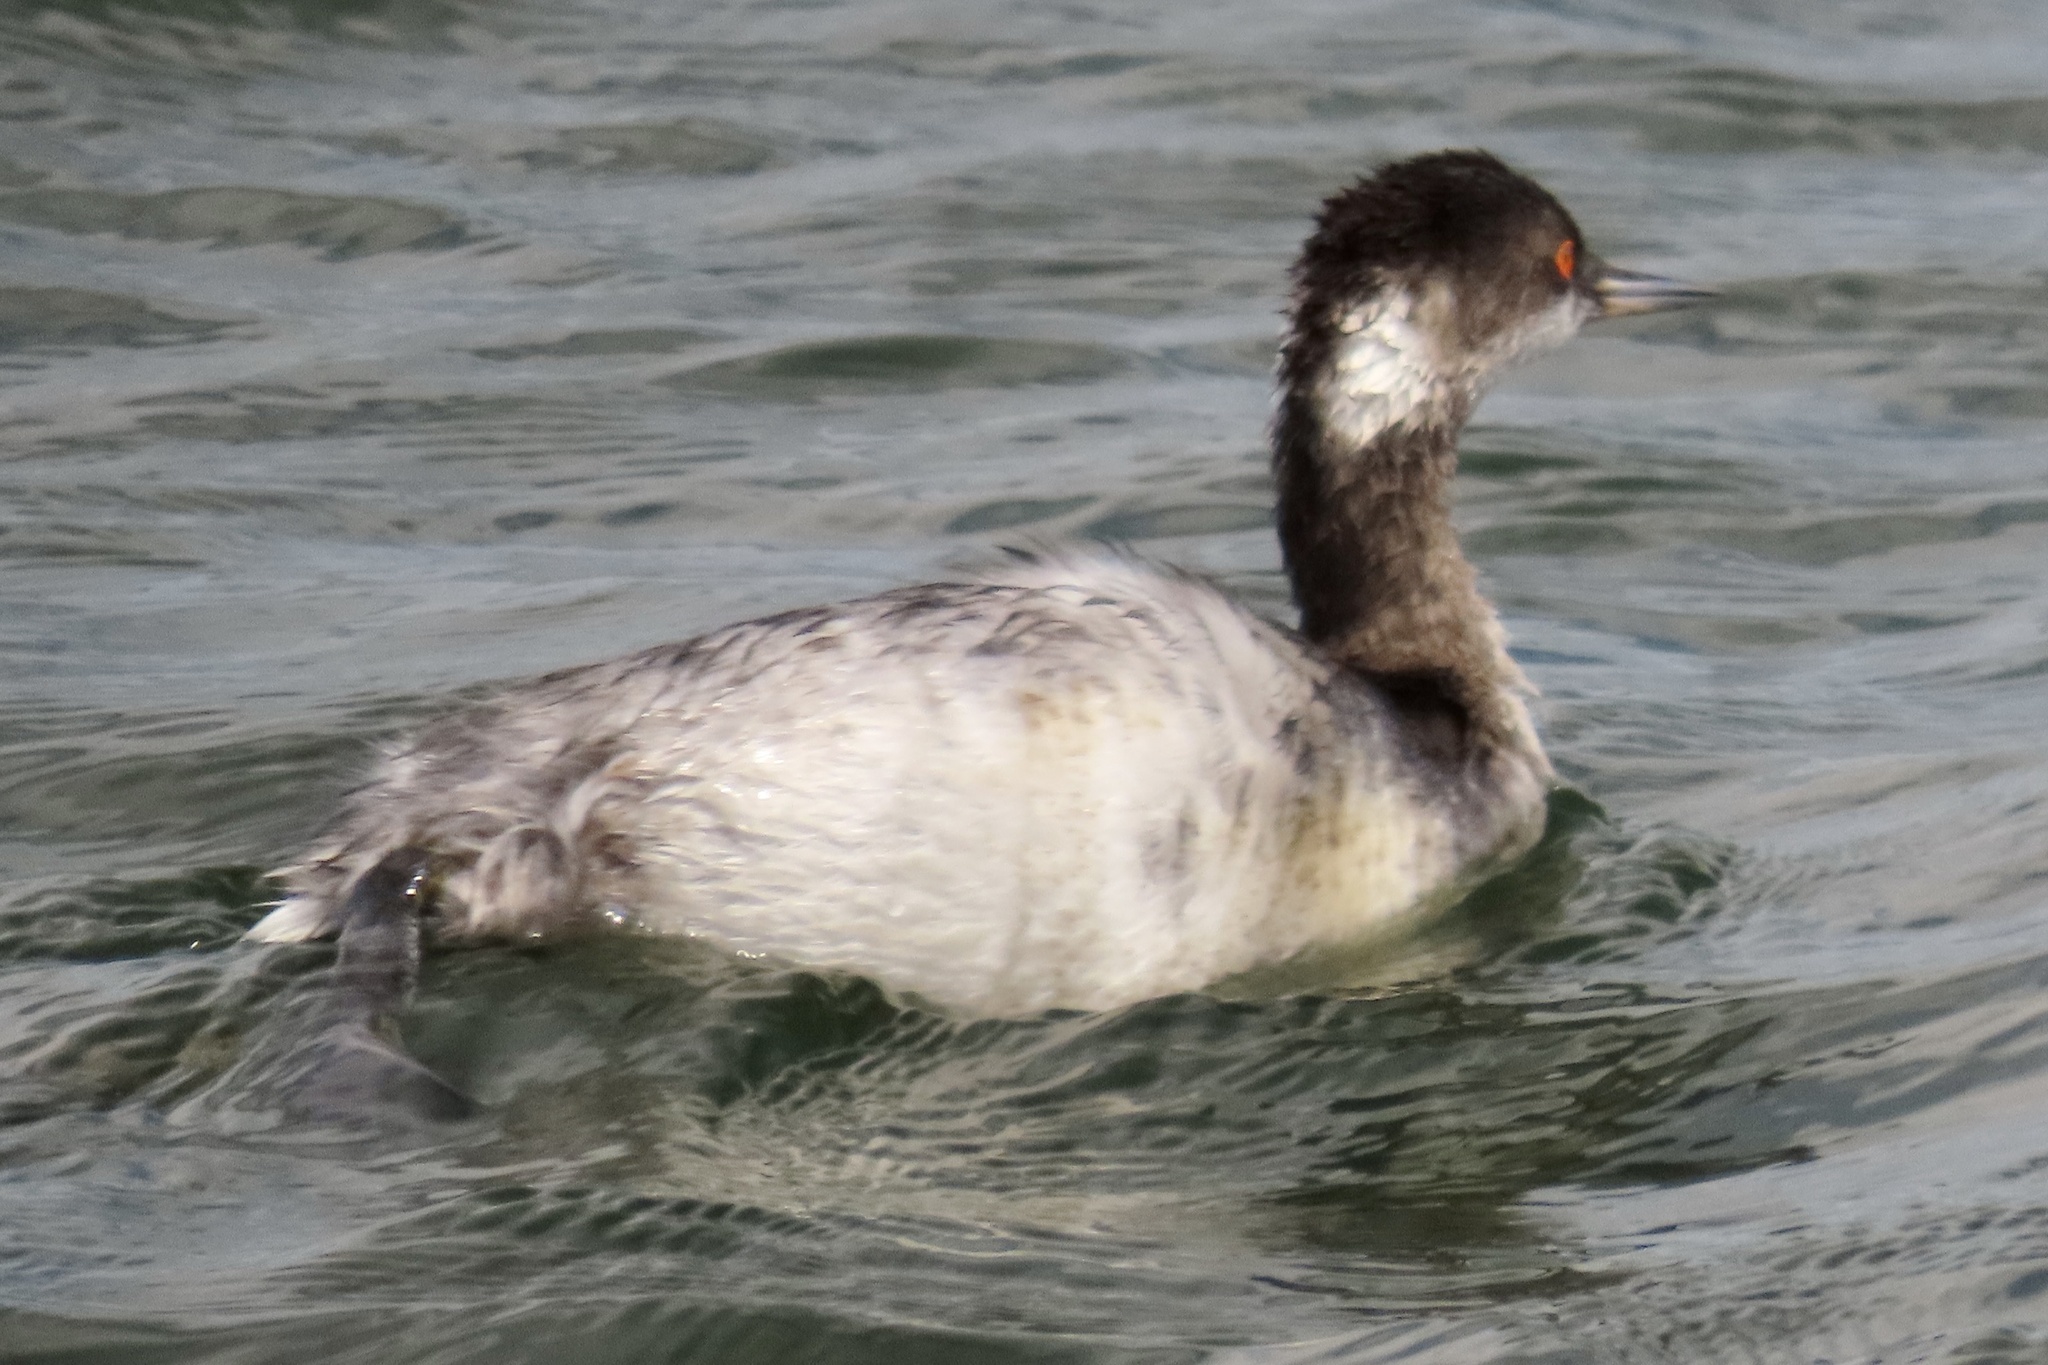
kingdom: Animalia
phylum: Chordata
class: Aves
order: Podicipediformes
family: Podicipedidae
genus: Podiceps
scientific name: Podiceps nigricollis
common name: Black-necked grebe
